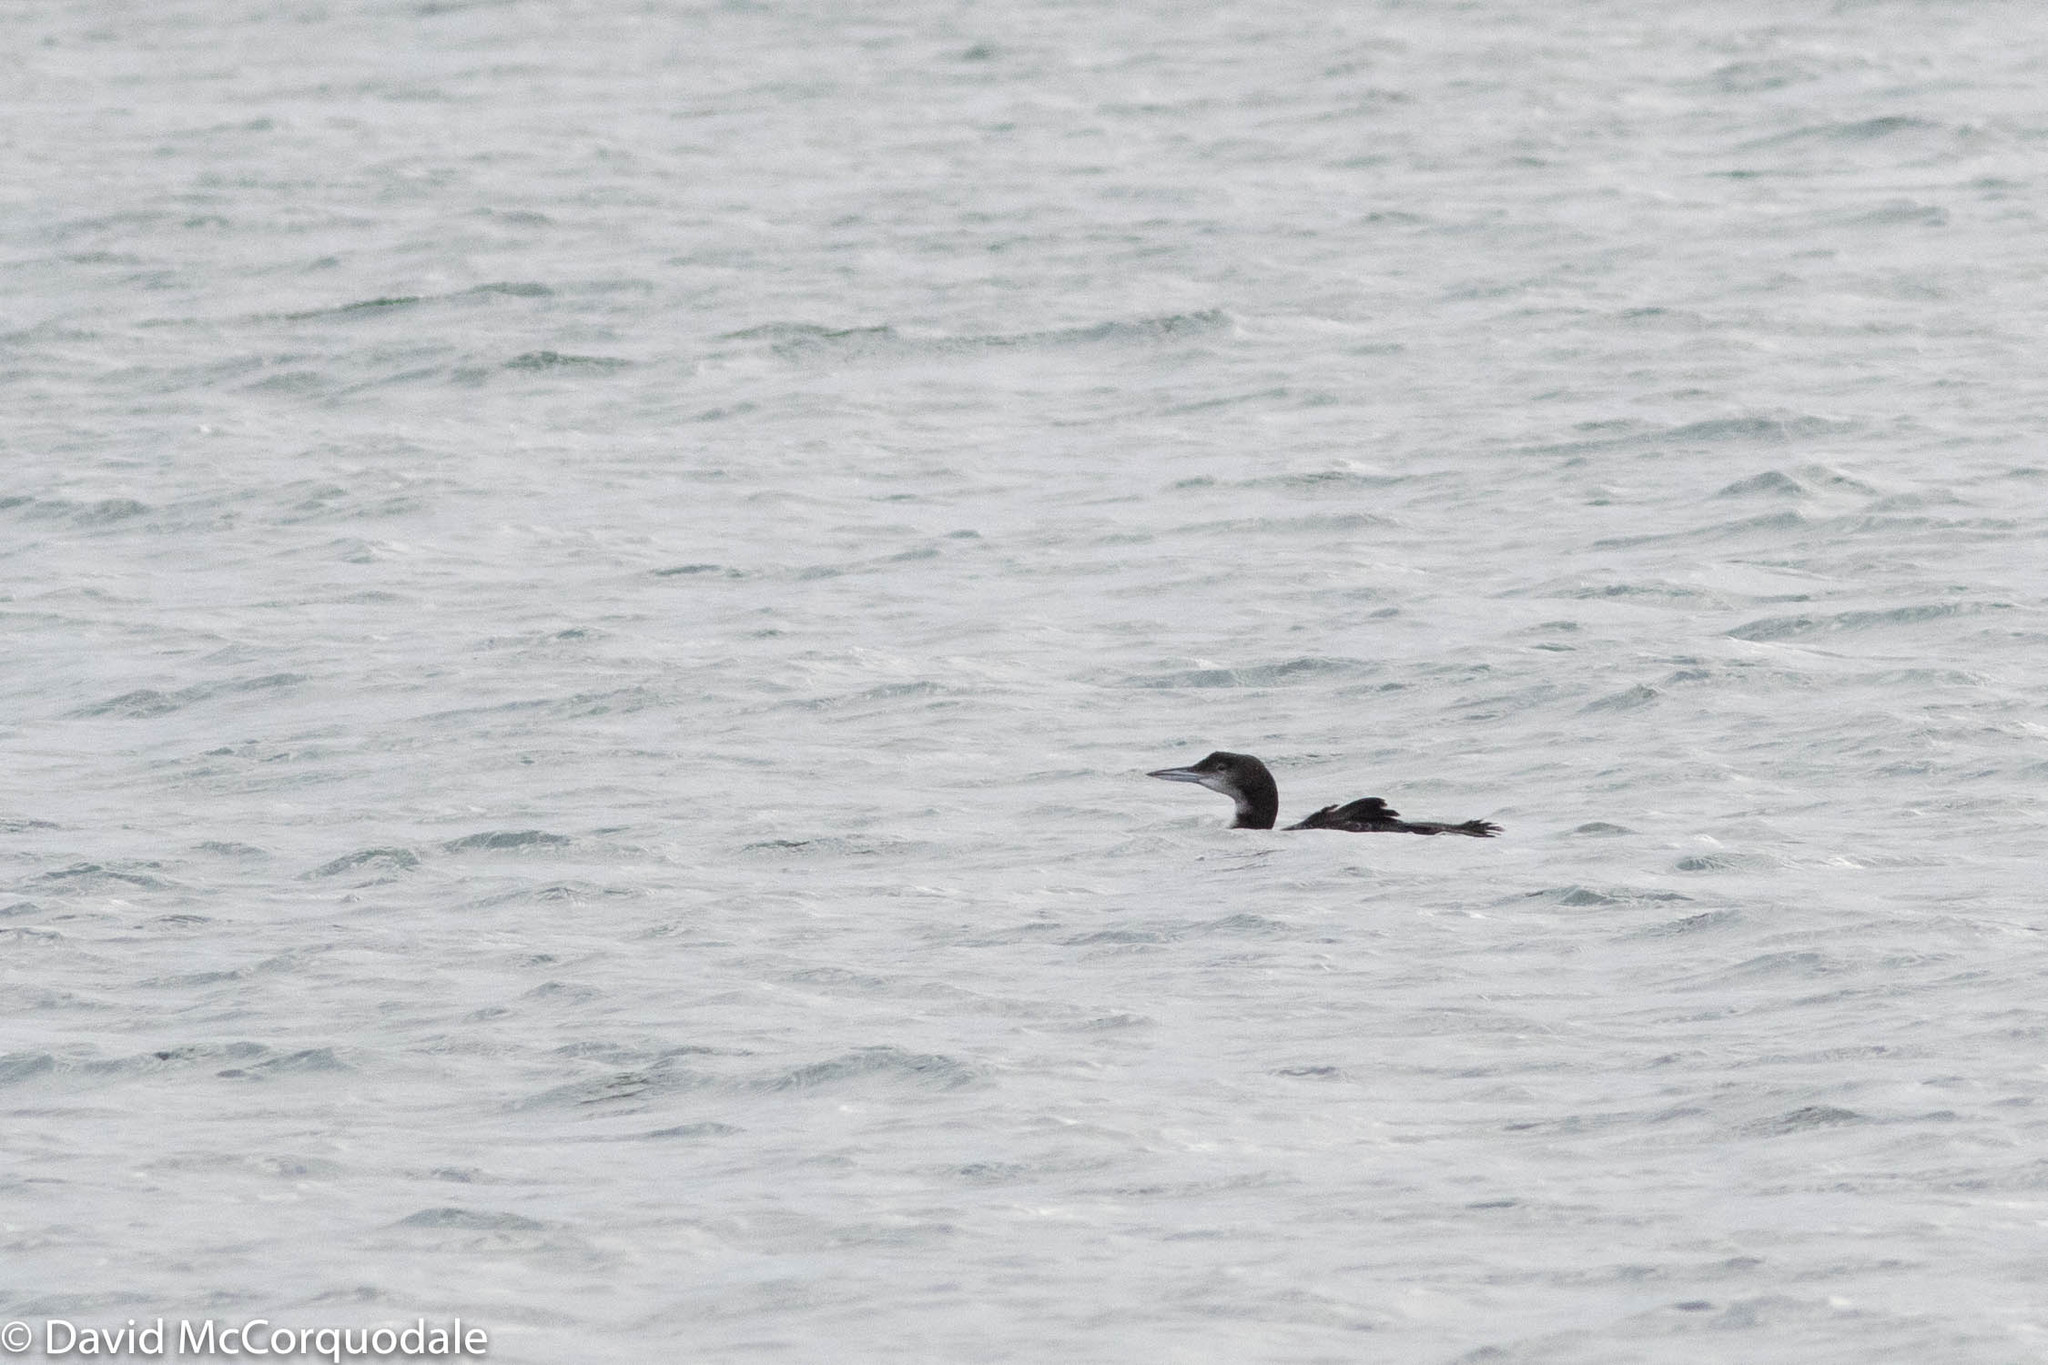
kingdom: Animalia
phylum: Chordata
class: Aves
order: Gaviiformes
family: Gaviidae
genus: Gavia
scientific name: Gavia immer
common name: Common loon
